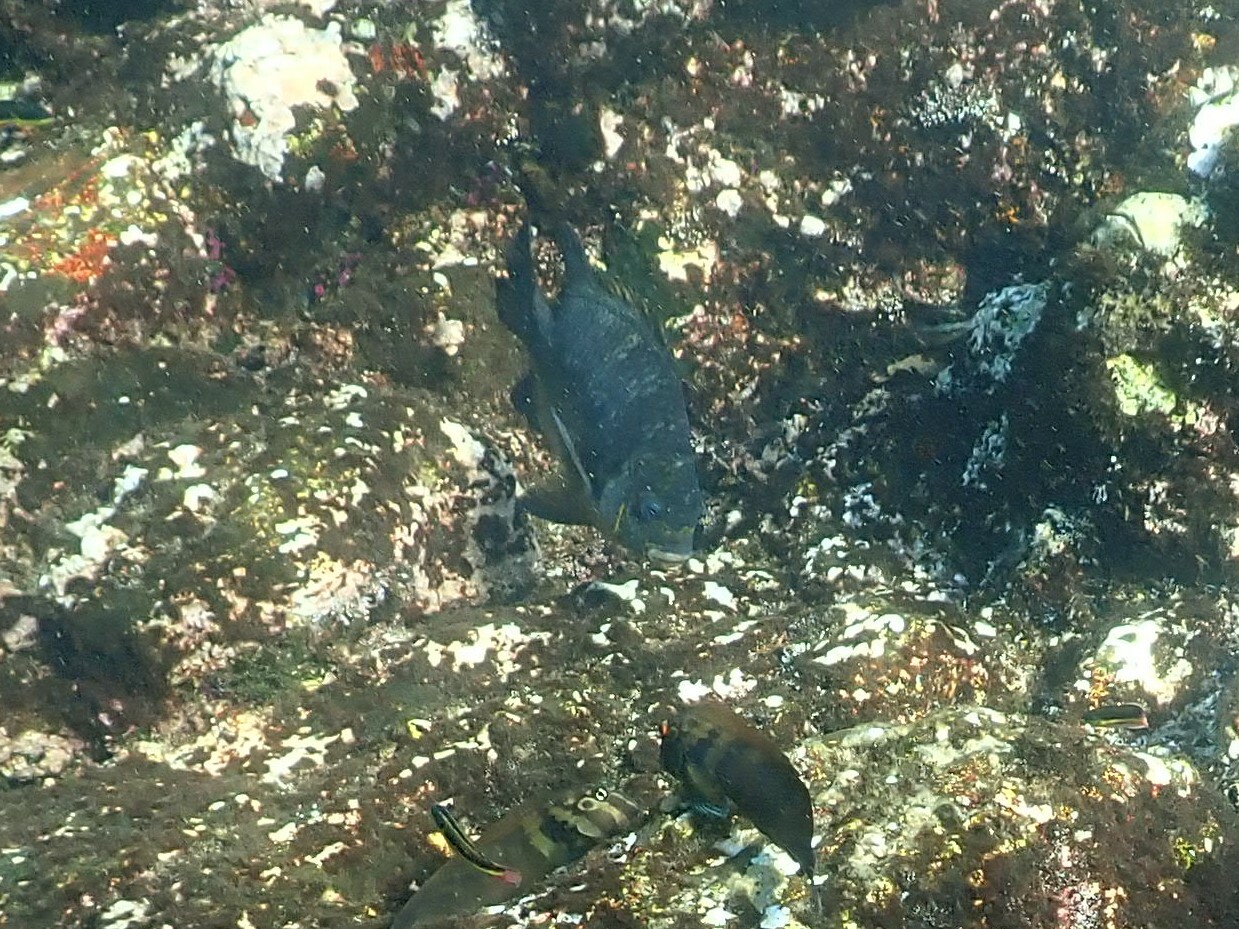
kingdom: Animalia
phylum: Chordata
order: Perciformes
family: Pomacentridae
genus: Abudefduf
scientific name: Abudefduf declivifrons
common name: Mexican night sergeant
